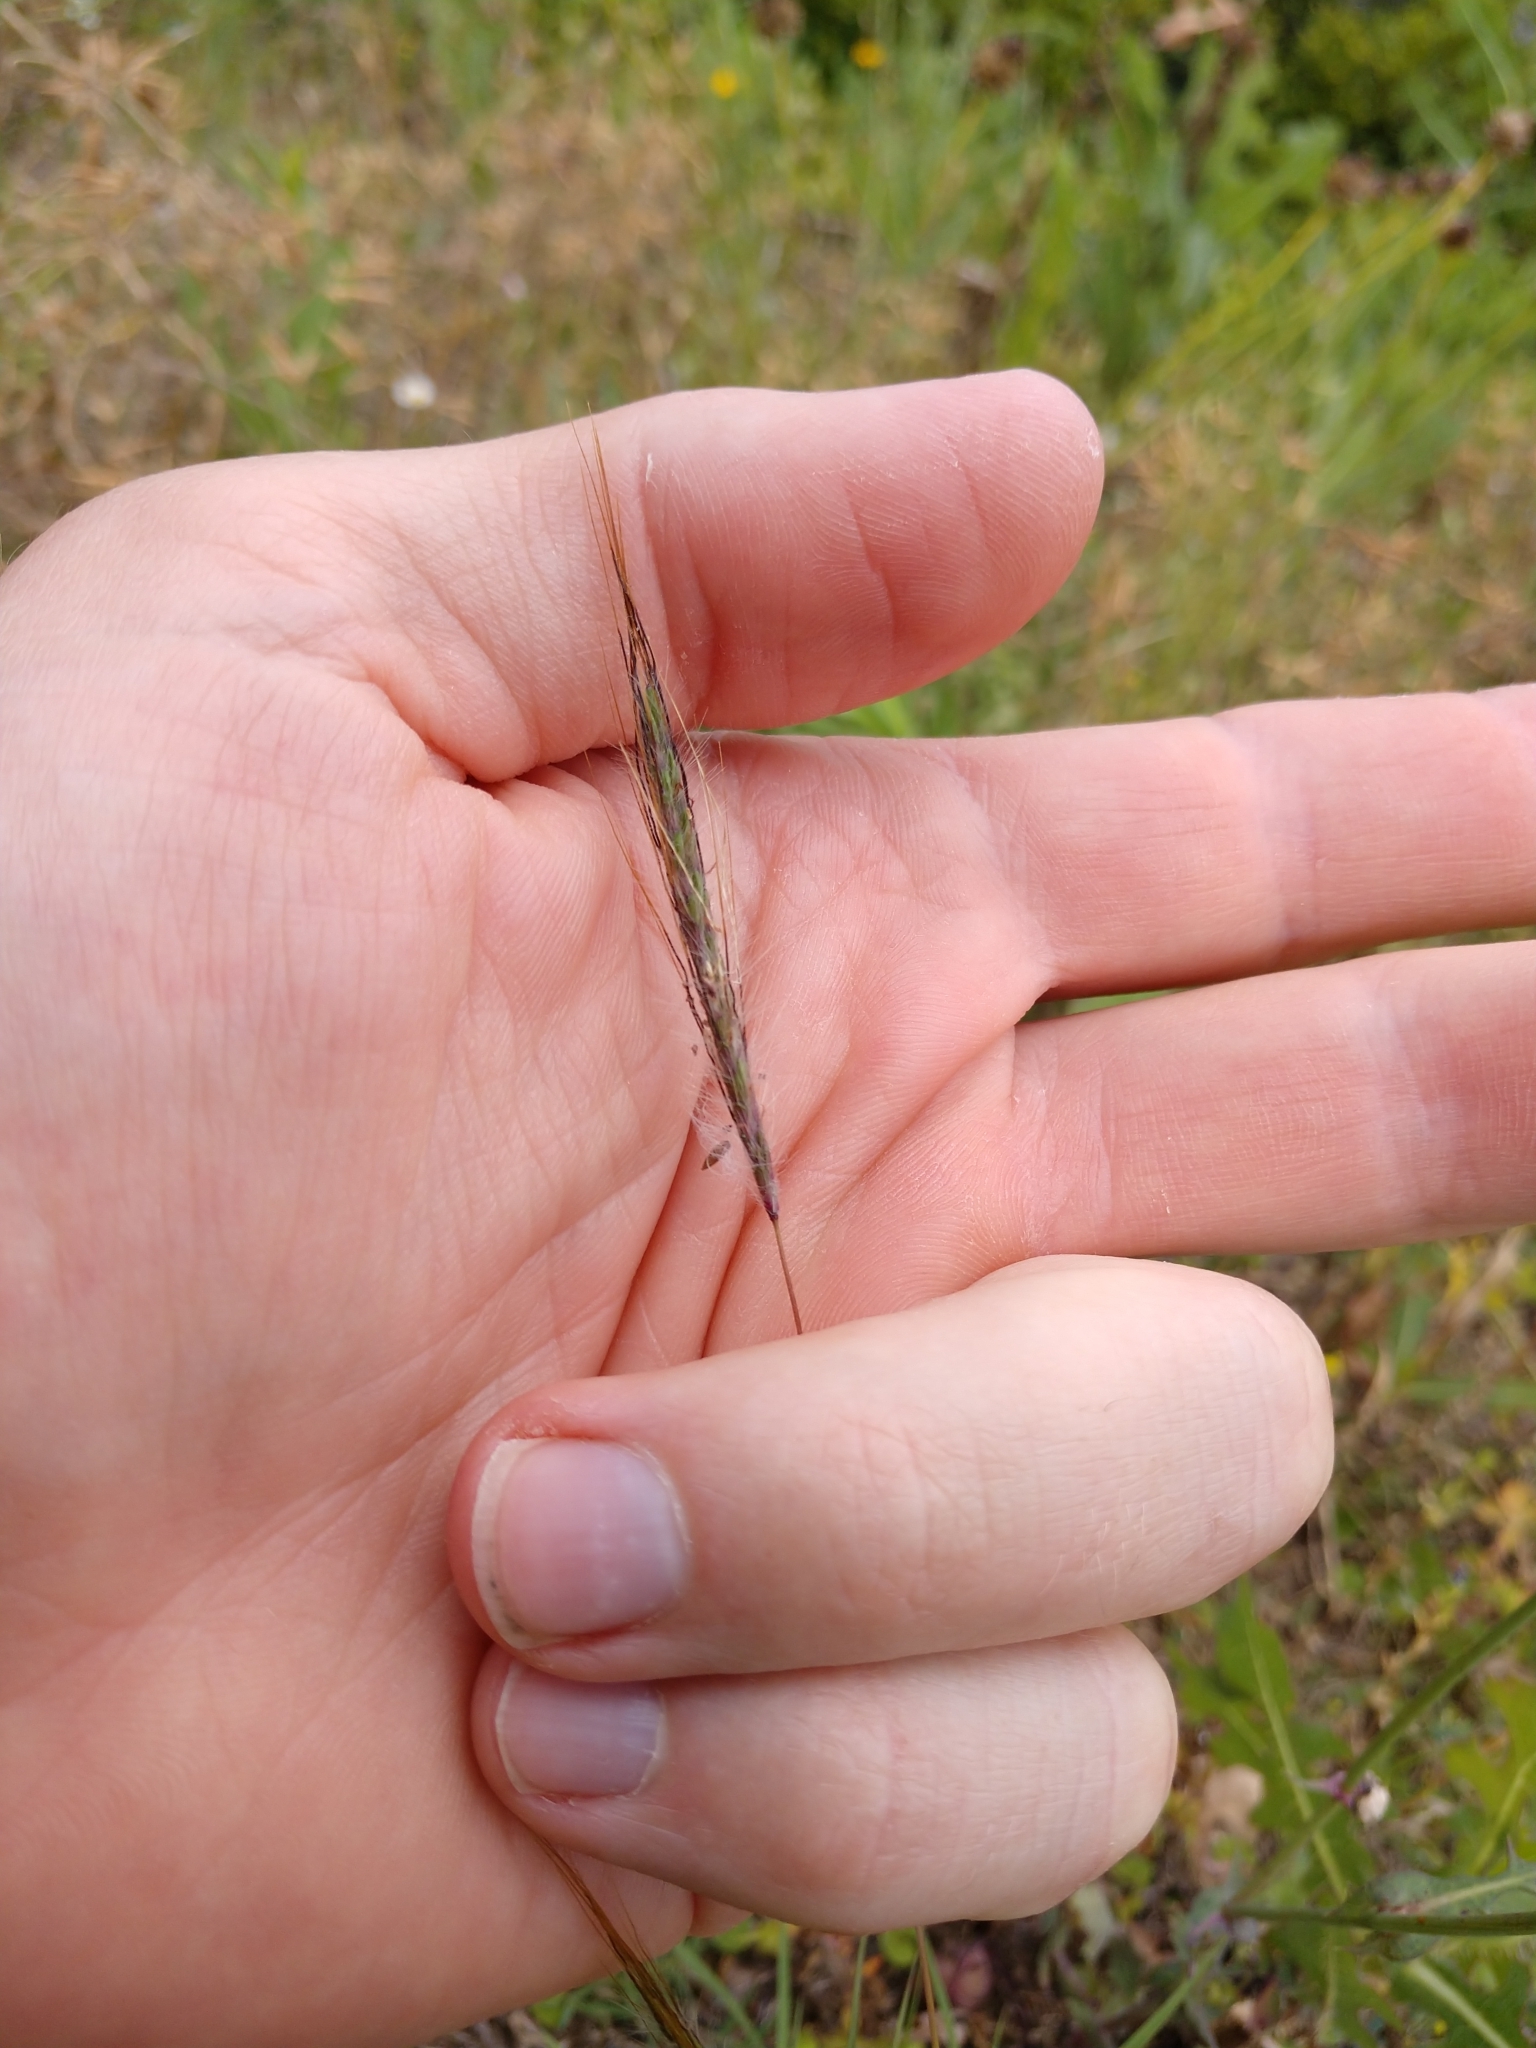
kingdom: Plantae
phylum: Tracheophyta
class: Liliopsida
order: Poales
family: Poaceae
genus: Dichanthium
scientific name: Dichanthium sericeum
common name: Silky bluestem
